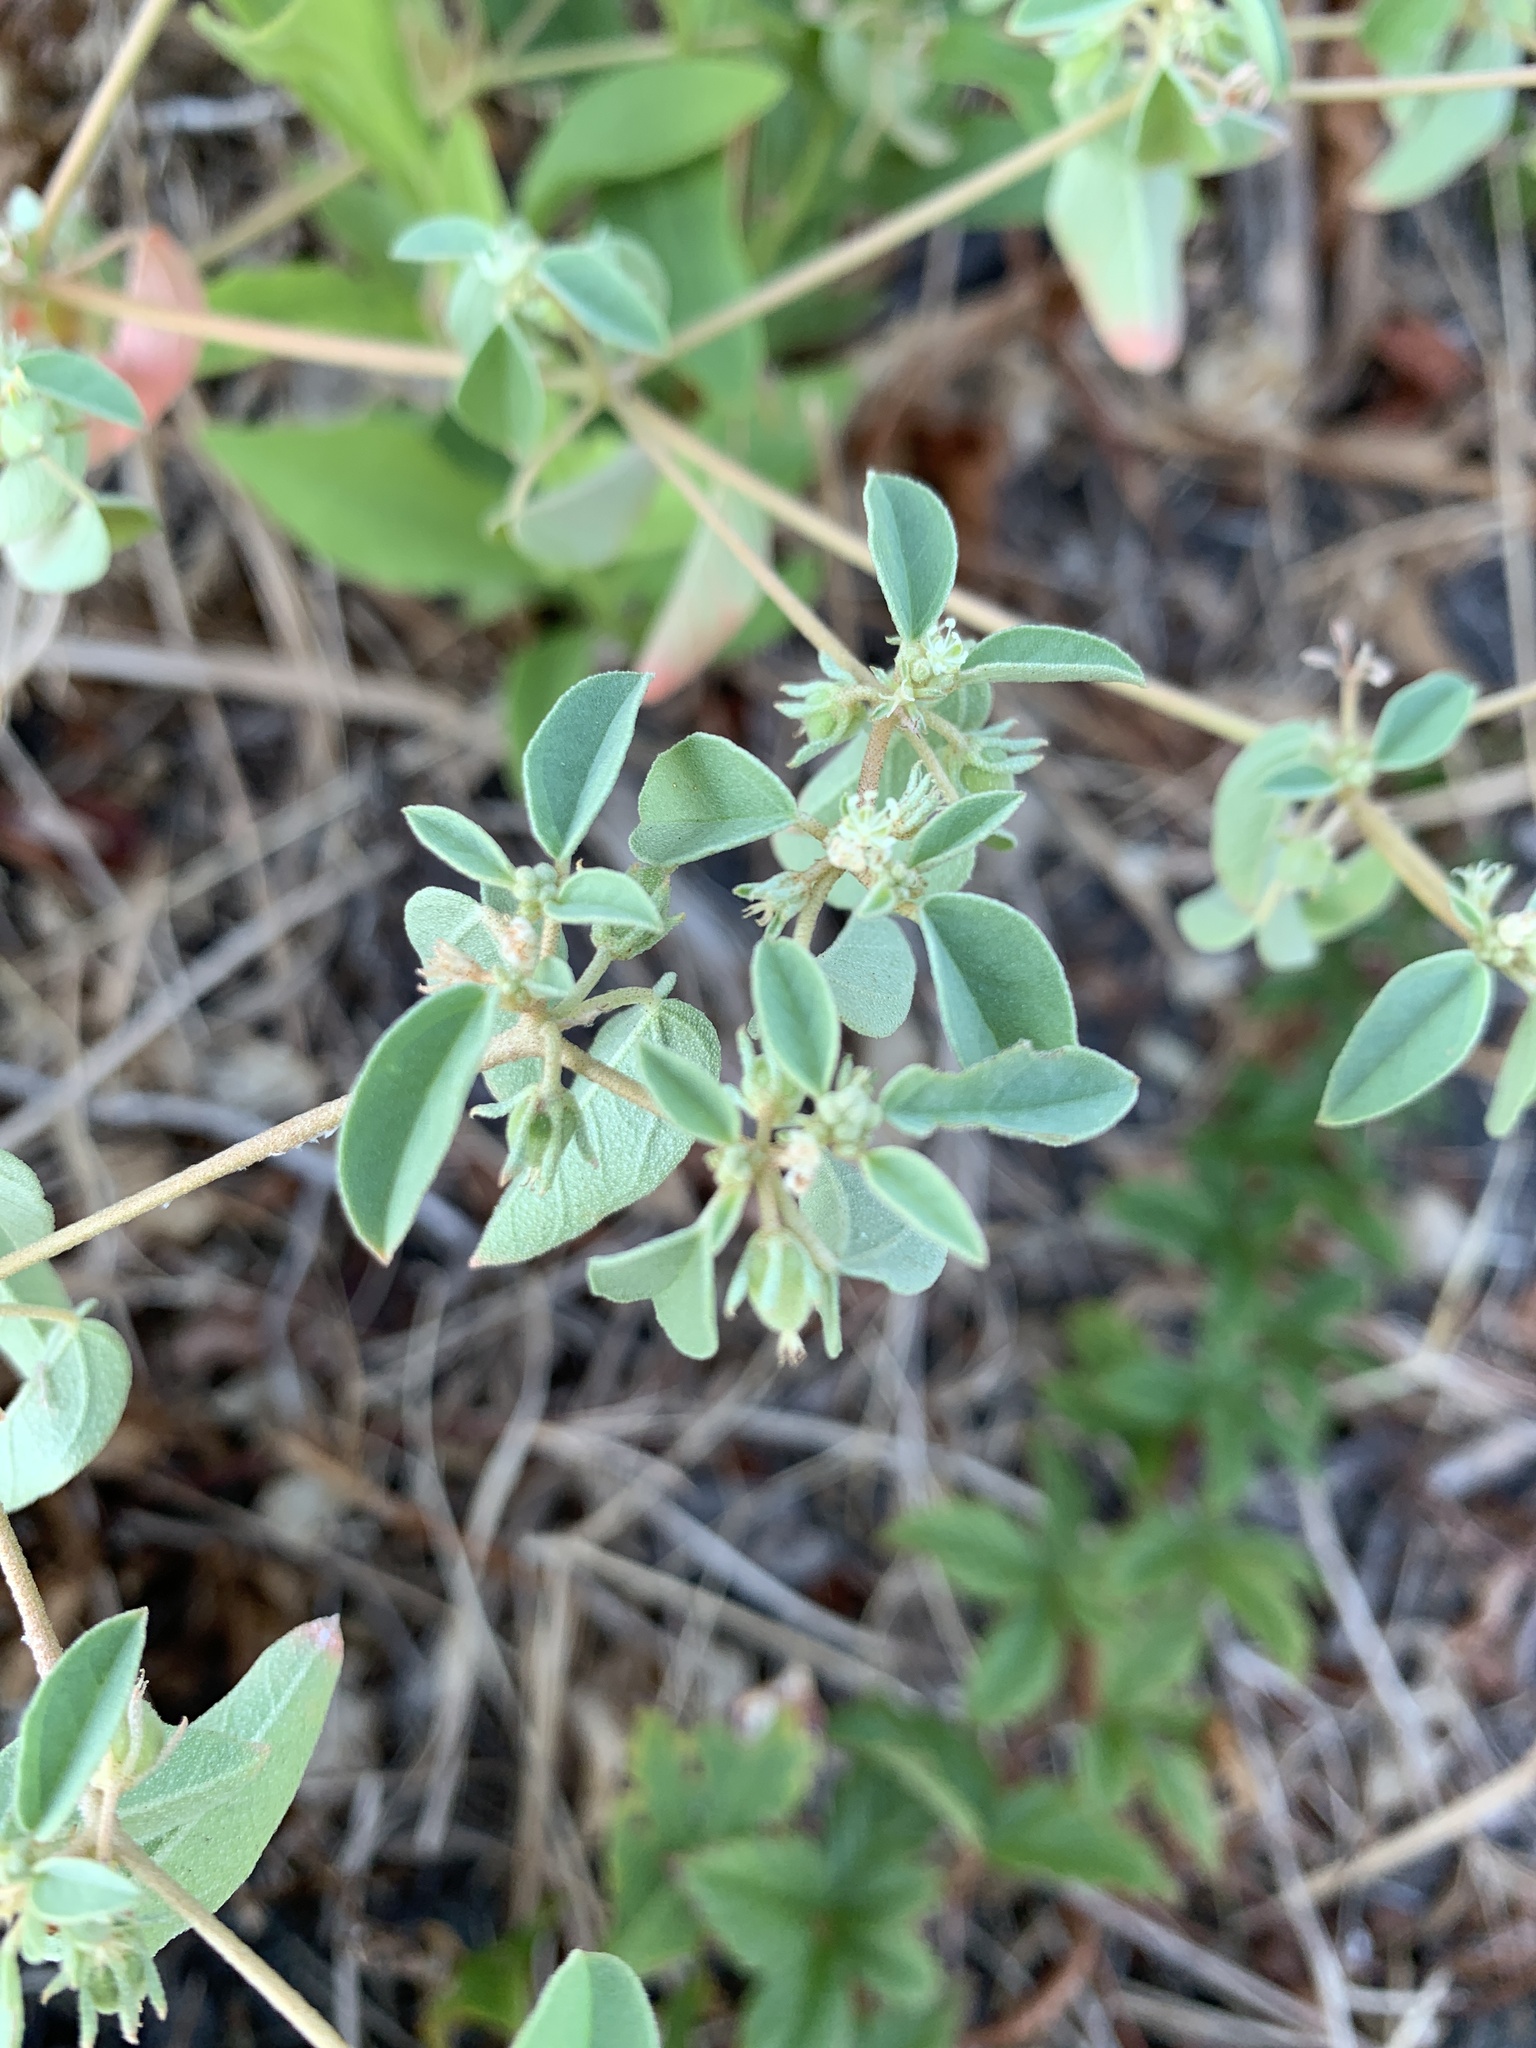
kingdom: Plantae
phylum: Tracheophyta
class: Magnoliopsida
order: Malpighiales
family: Euphorbiaceae
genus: Croton
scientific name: Croton monanthogynus
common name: One-seed croton
